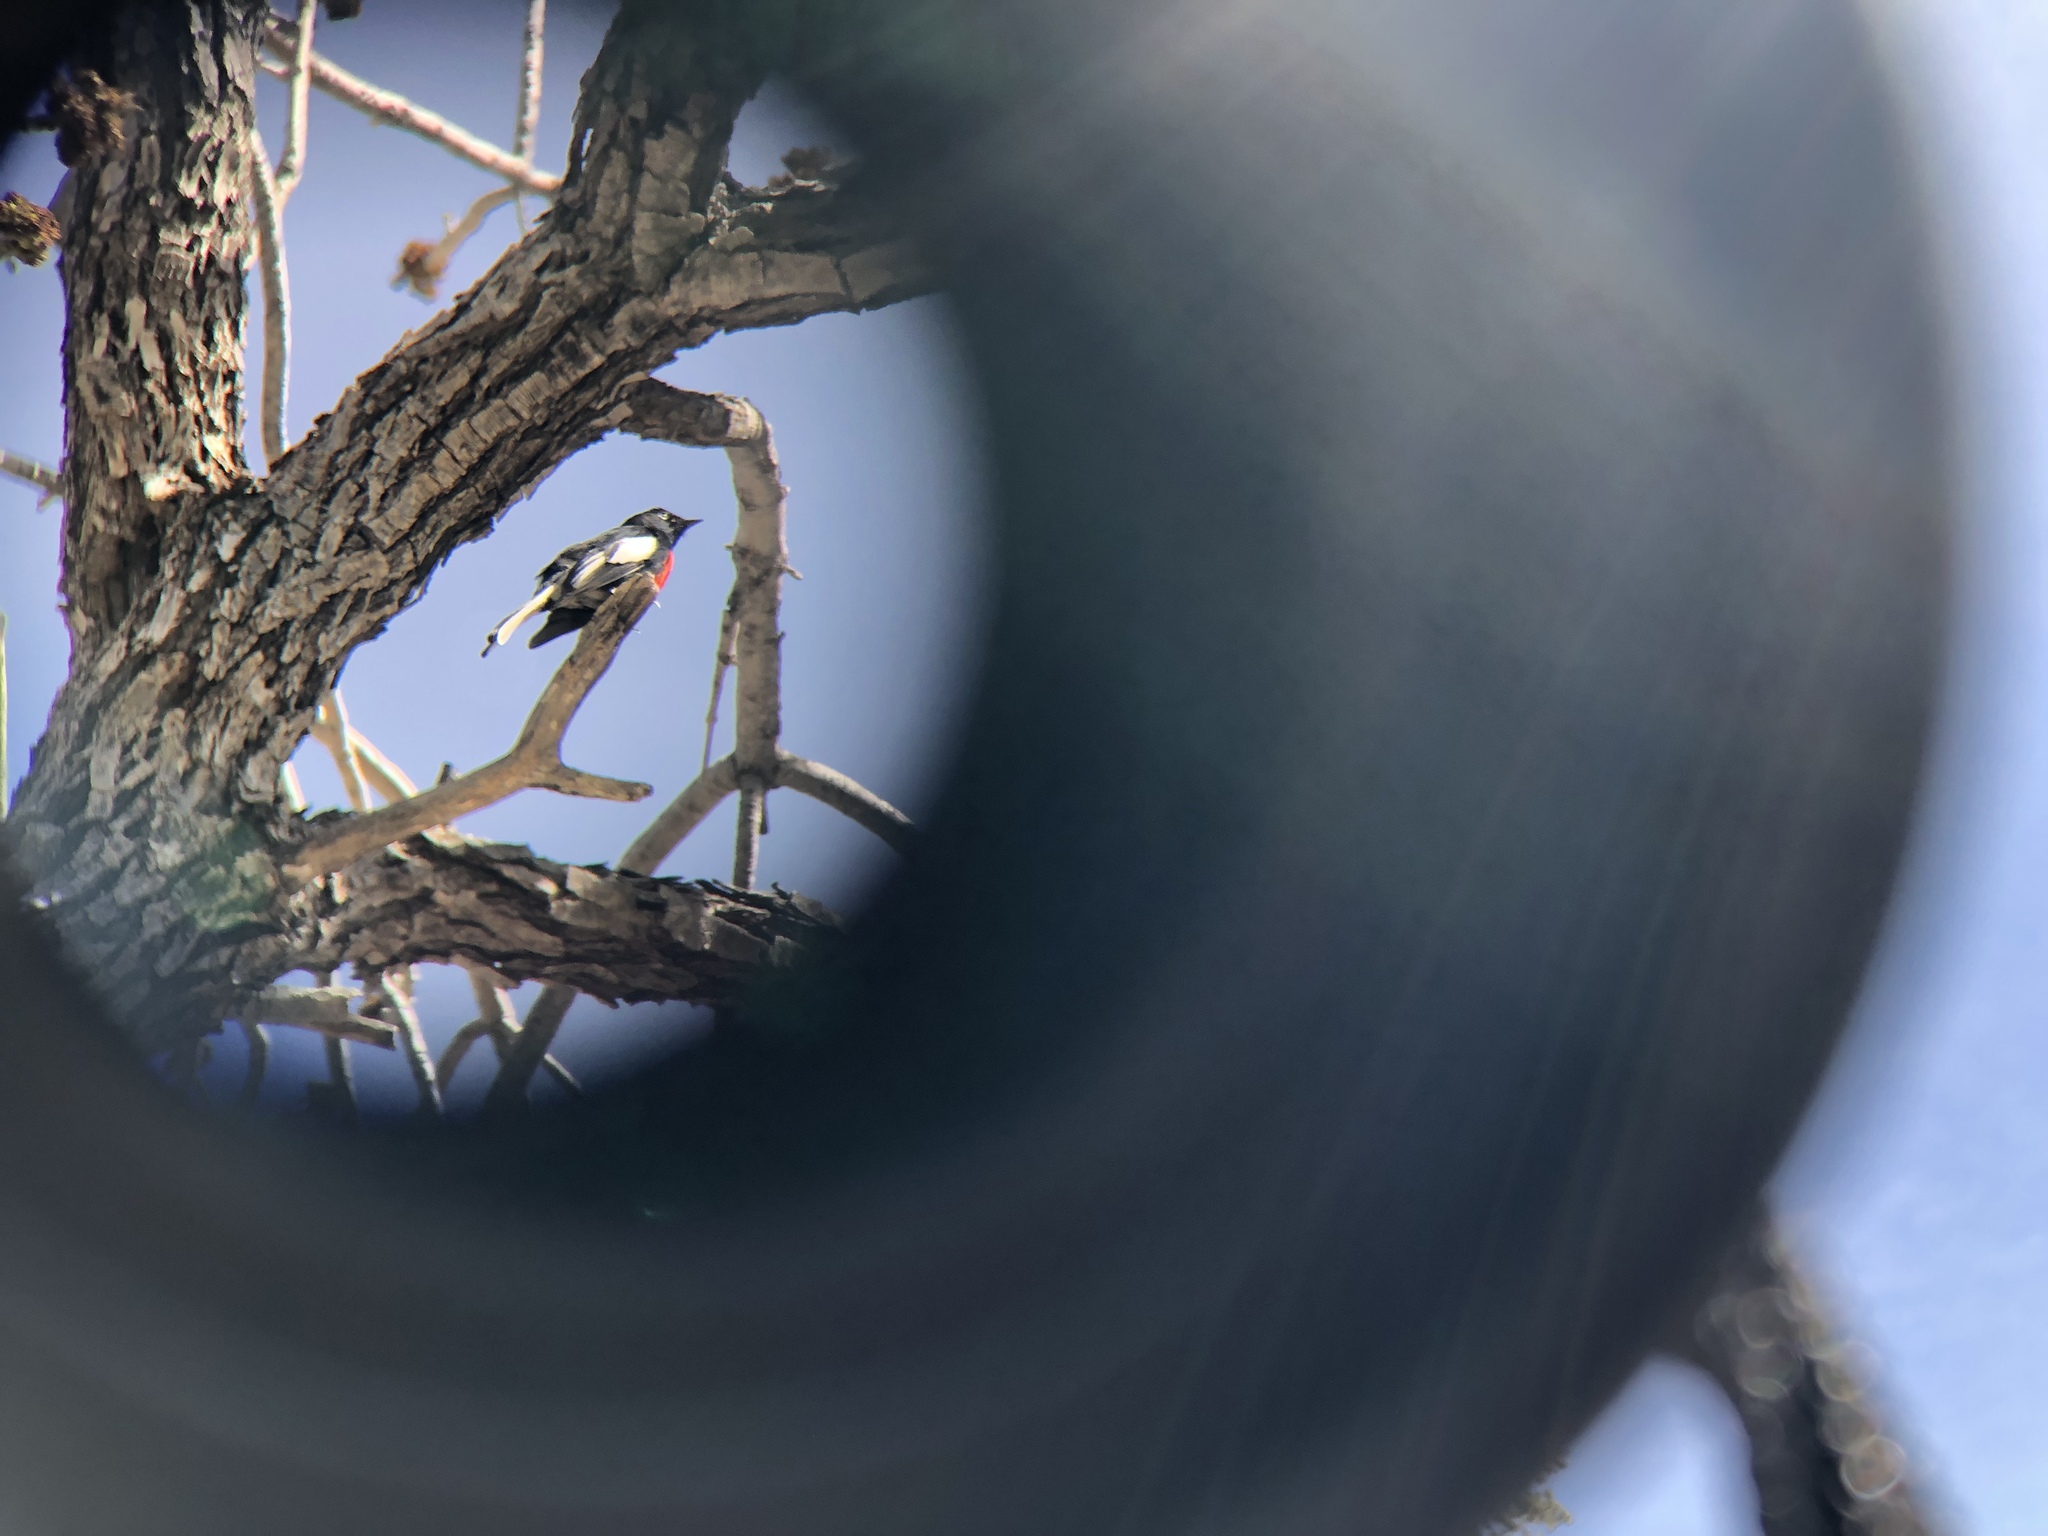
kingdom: Animalia
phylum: Chordata
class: Aves
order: Passeriformes
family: Parulidae
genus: Myioborus
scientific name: Myioborus pictus
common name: Painted whitestart
